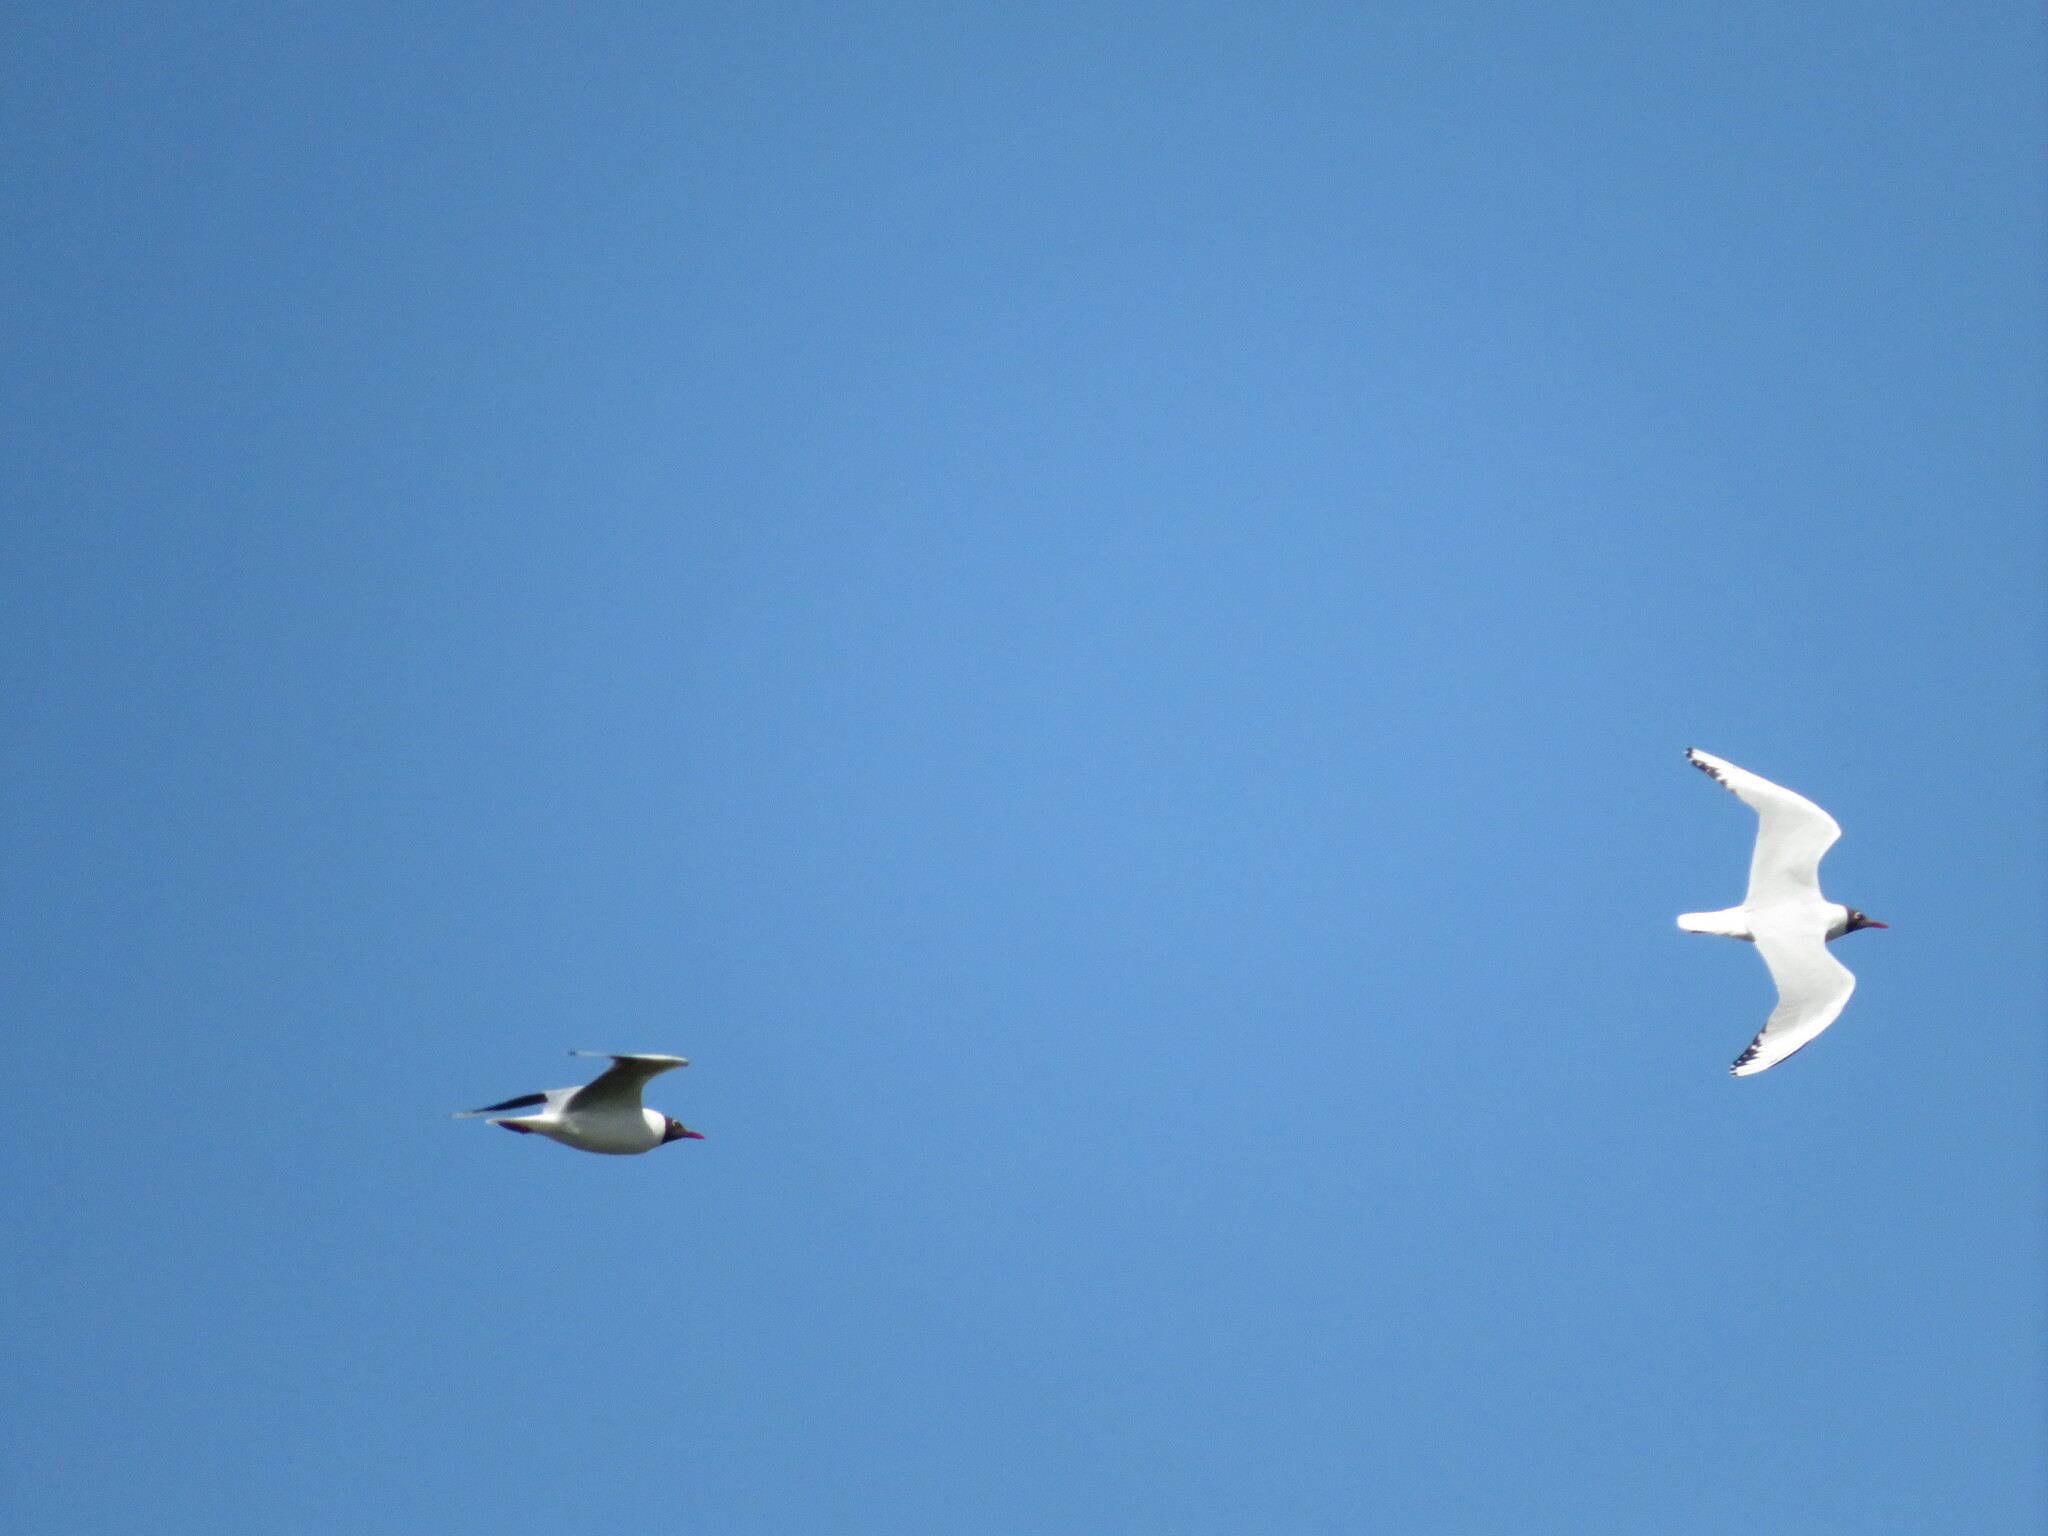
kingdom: Animalia
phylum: Chordata
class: Aves
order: Charadriiformes
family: Laridae
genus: Chroicocephalus
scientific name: Chroicocephalus maculipennis
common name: Brown-hooded gull
